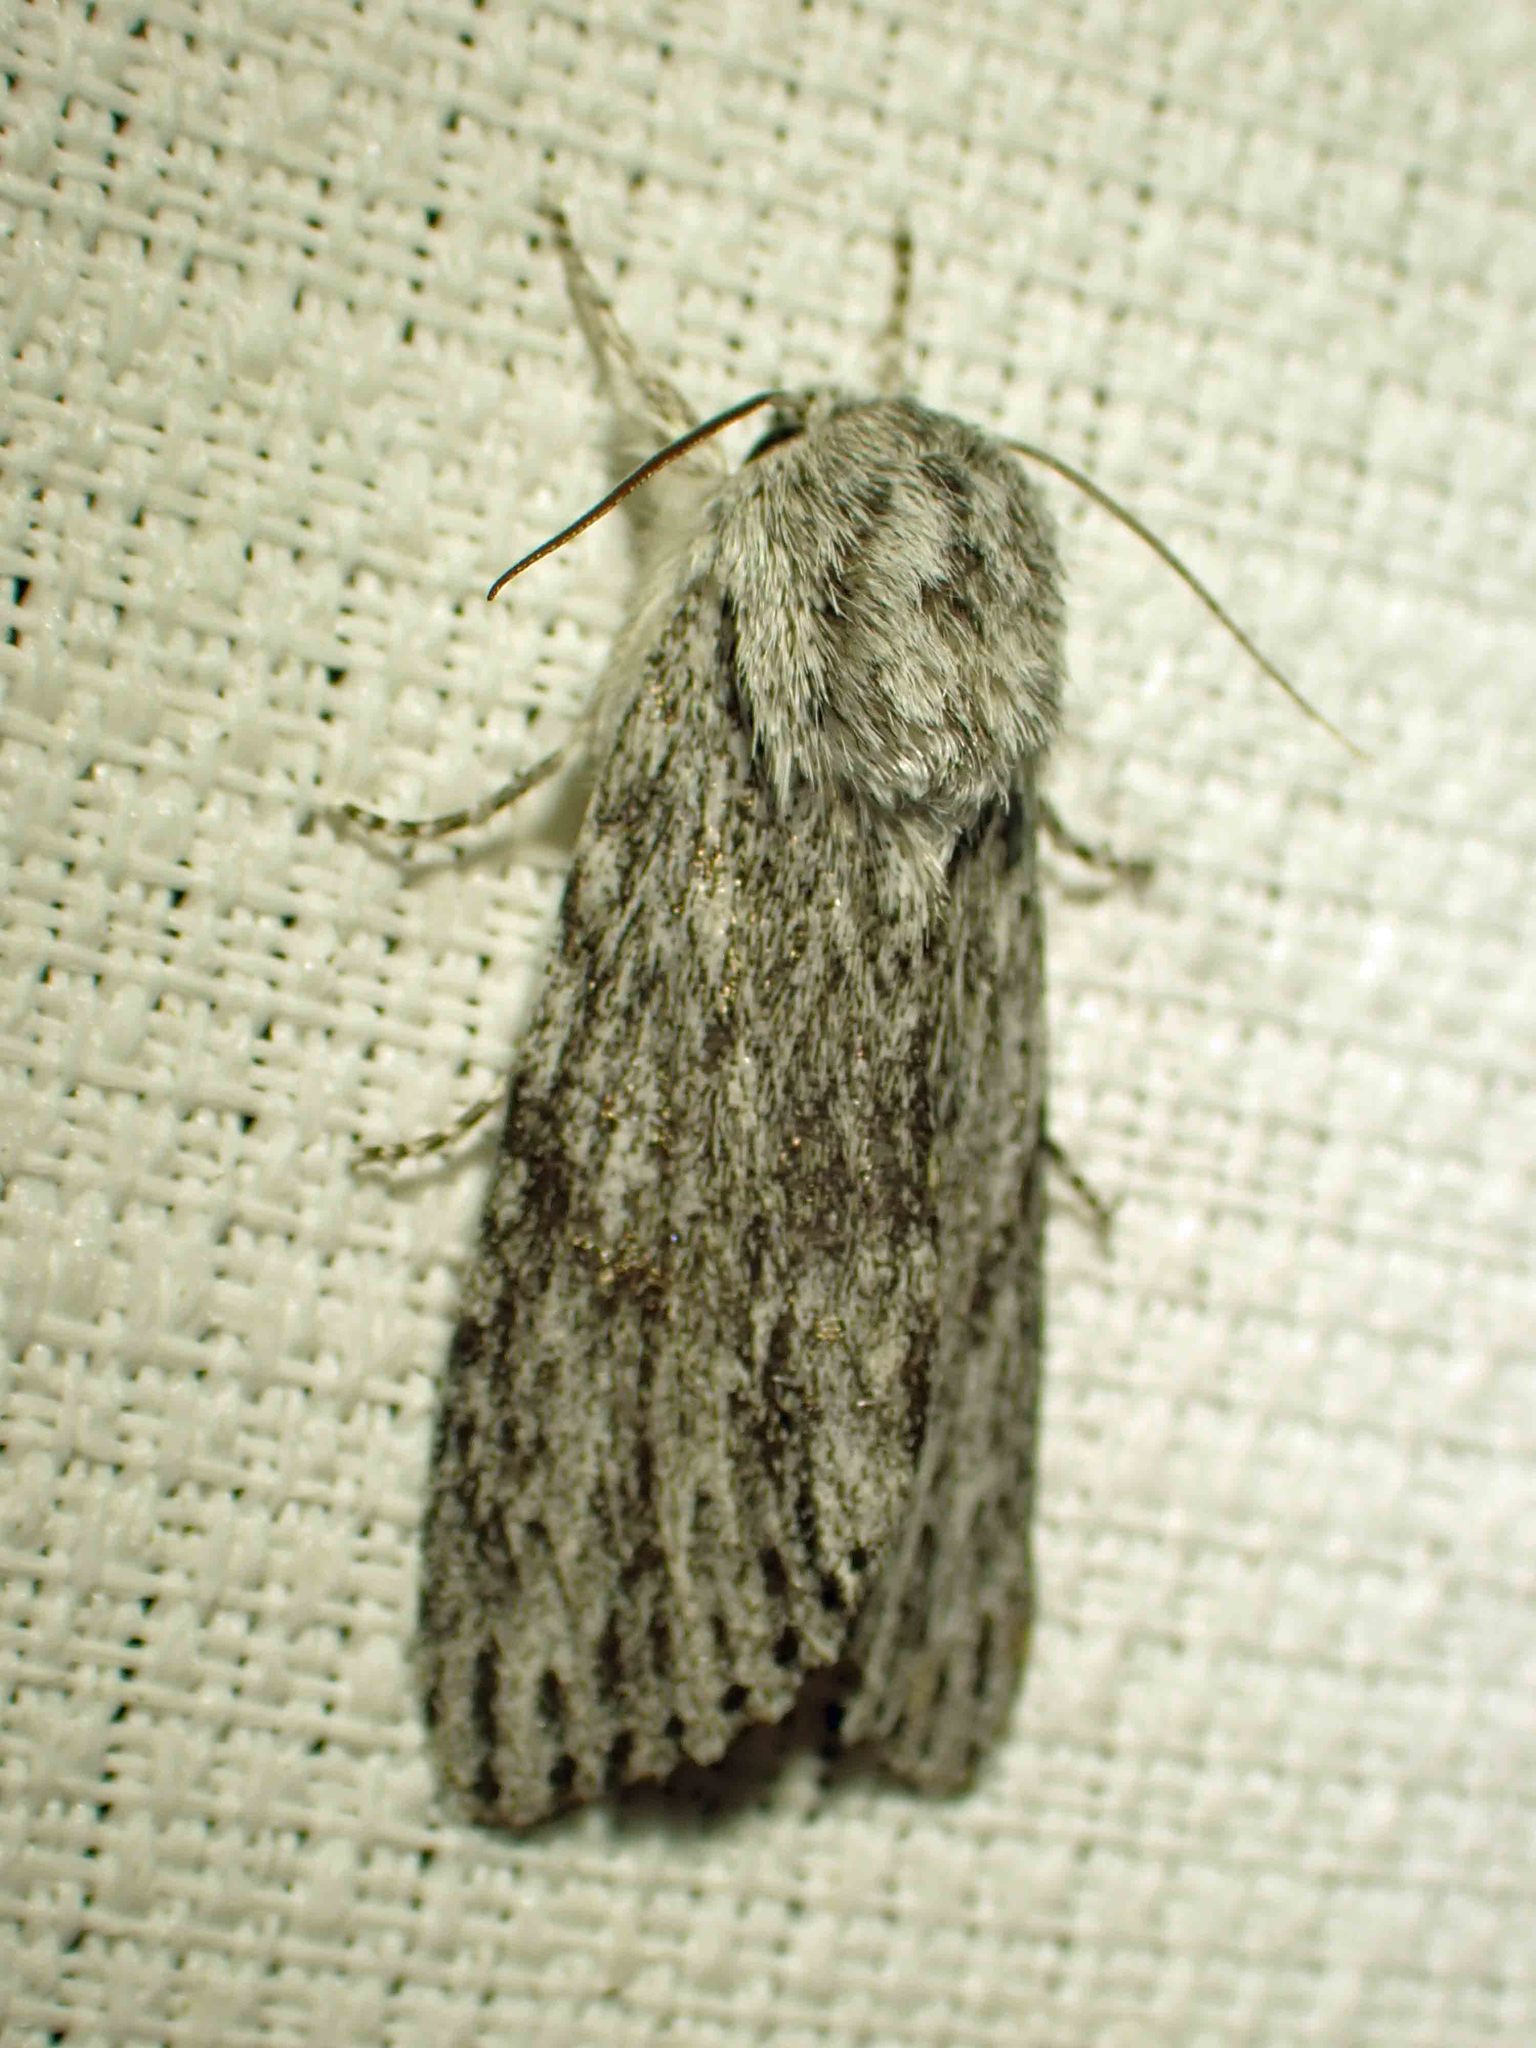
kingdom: Animalia
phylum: Arthropoda
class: Insecta
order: Lepidoptera
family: Noctuidae
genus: Acronicta
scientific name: Acronicta oblinita
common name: Smeared dagger
